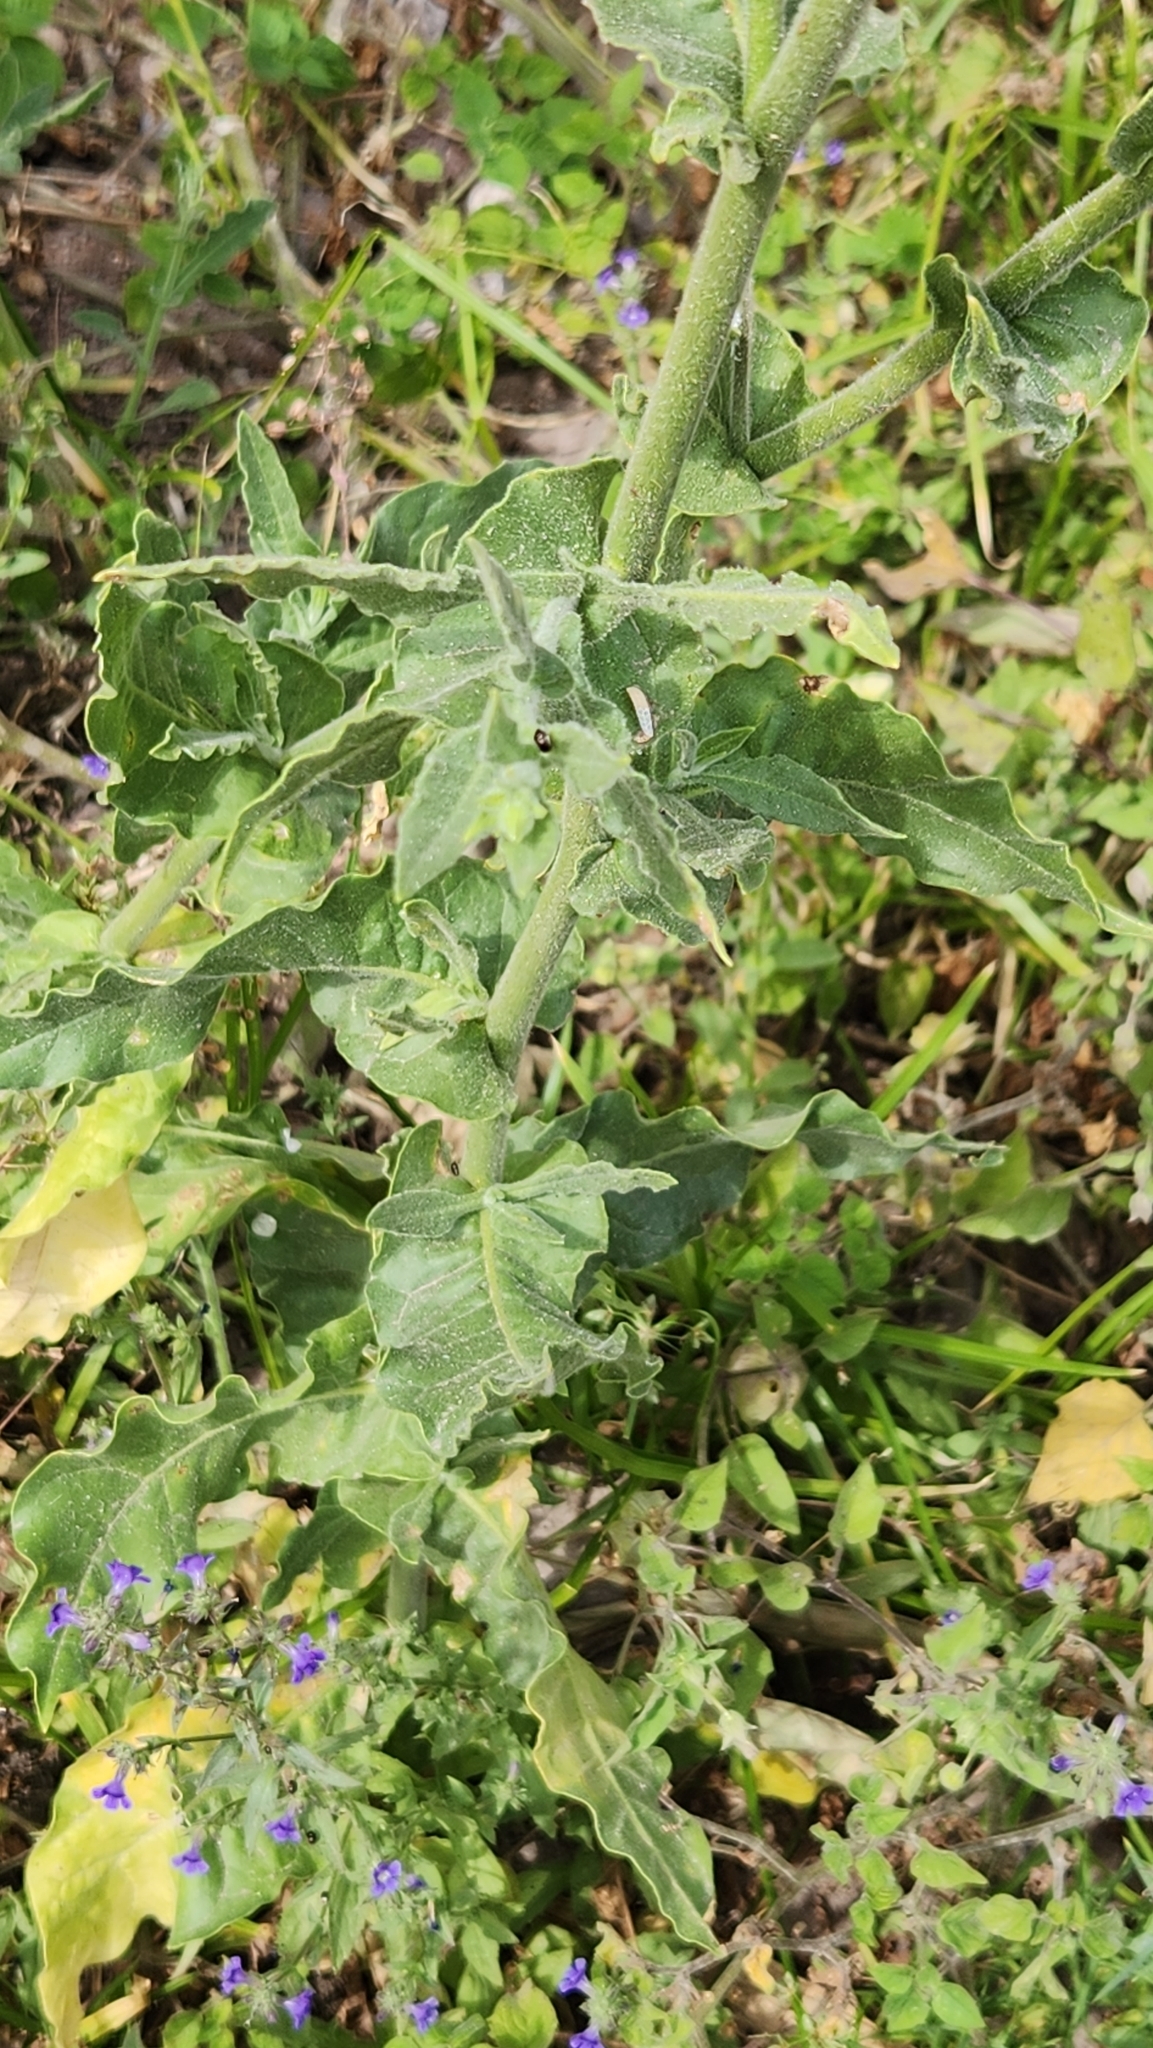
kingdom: Plantae
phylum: Tracheophyta
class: Magnoliopsida
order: Solanales
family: Solanaceae
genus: Nicotiana
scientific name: Nicotiana obtusifolia
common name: Desert tobacco
